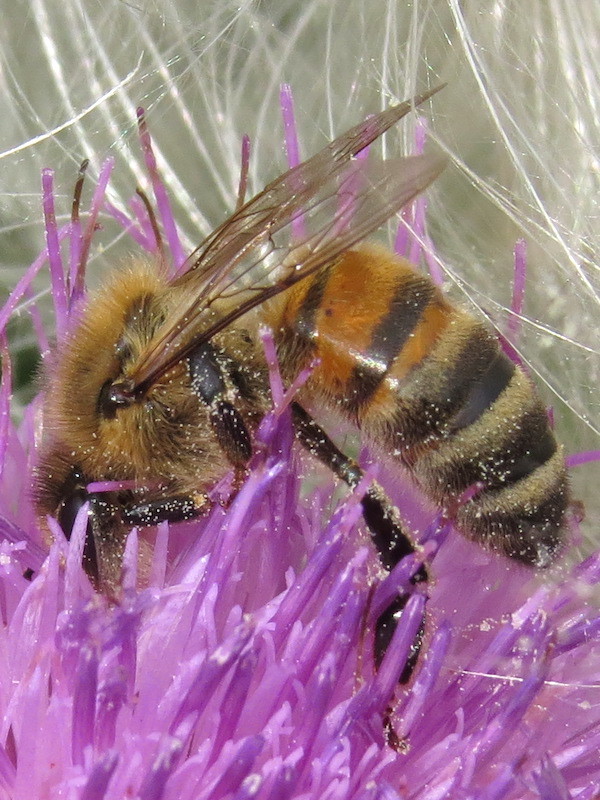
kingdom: Animalia
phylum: Arthropoda
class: Insecta
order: Hymenoptera
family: Apidae
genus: Apis
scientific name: Apis mellifera
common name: Honey bee
